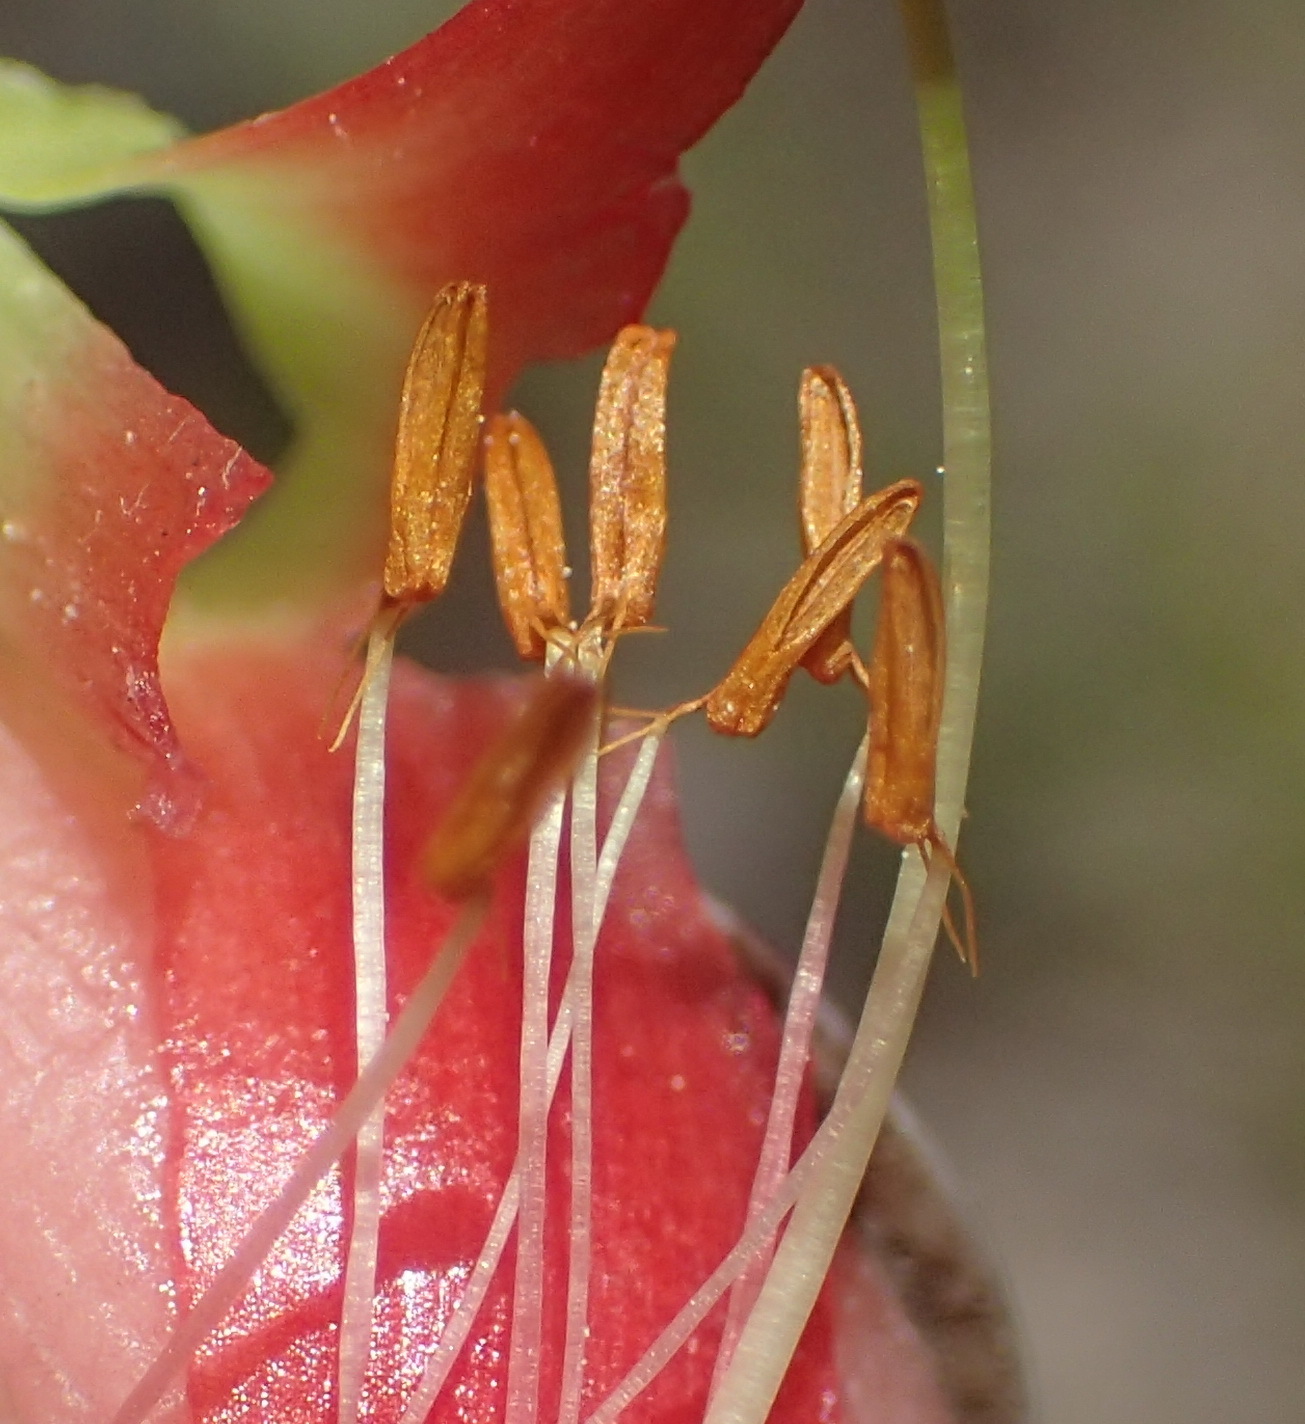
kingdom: Plantae
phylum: Tracheophyta
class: Magnoliopsida
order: Ericales
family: Ericaceae
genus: Erica
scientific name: Erica discolor
